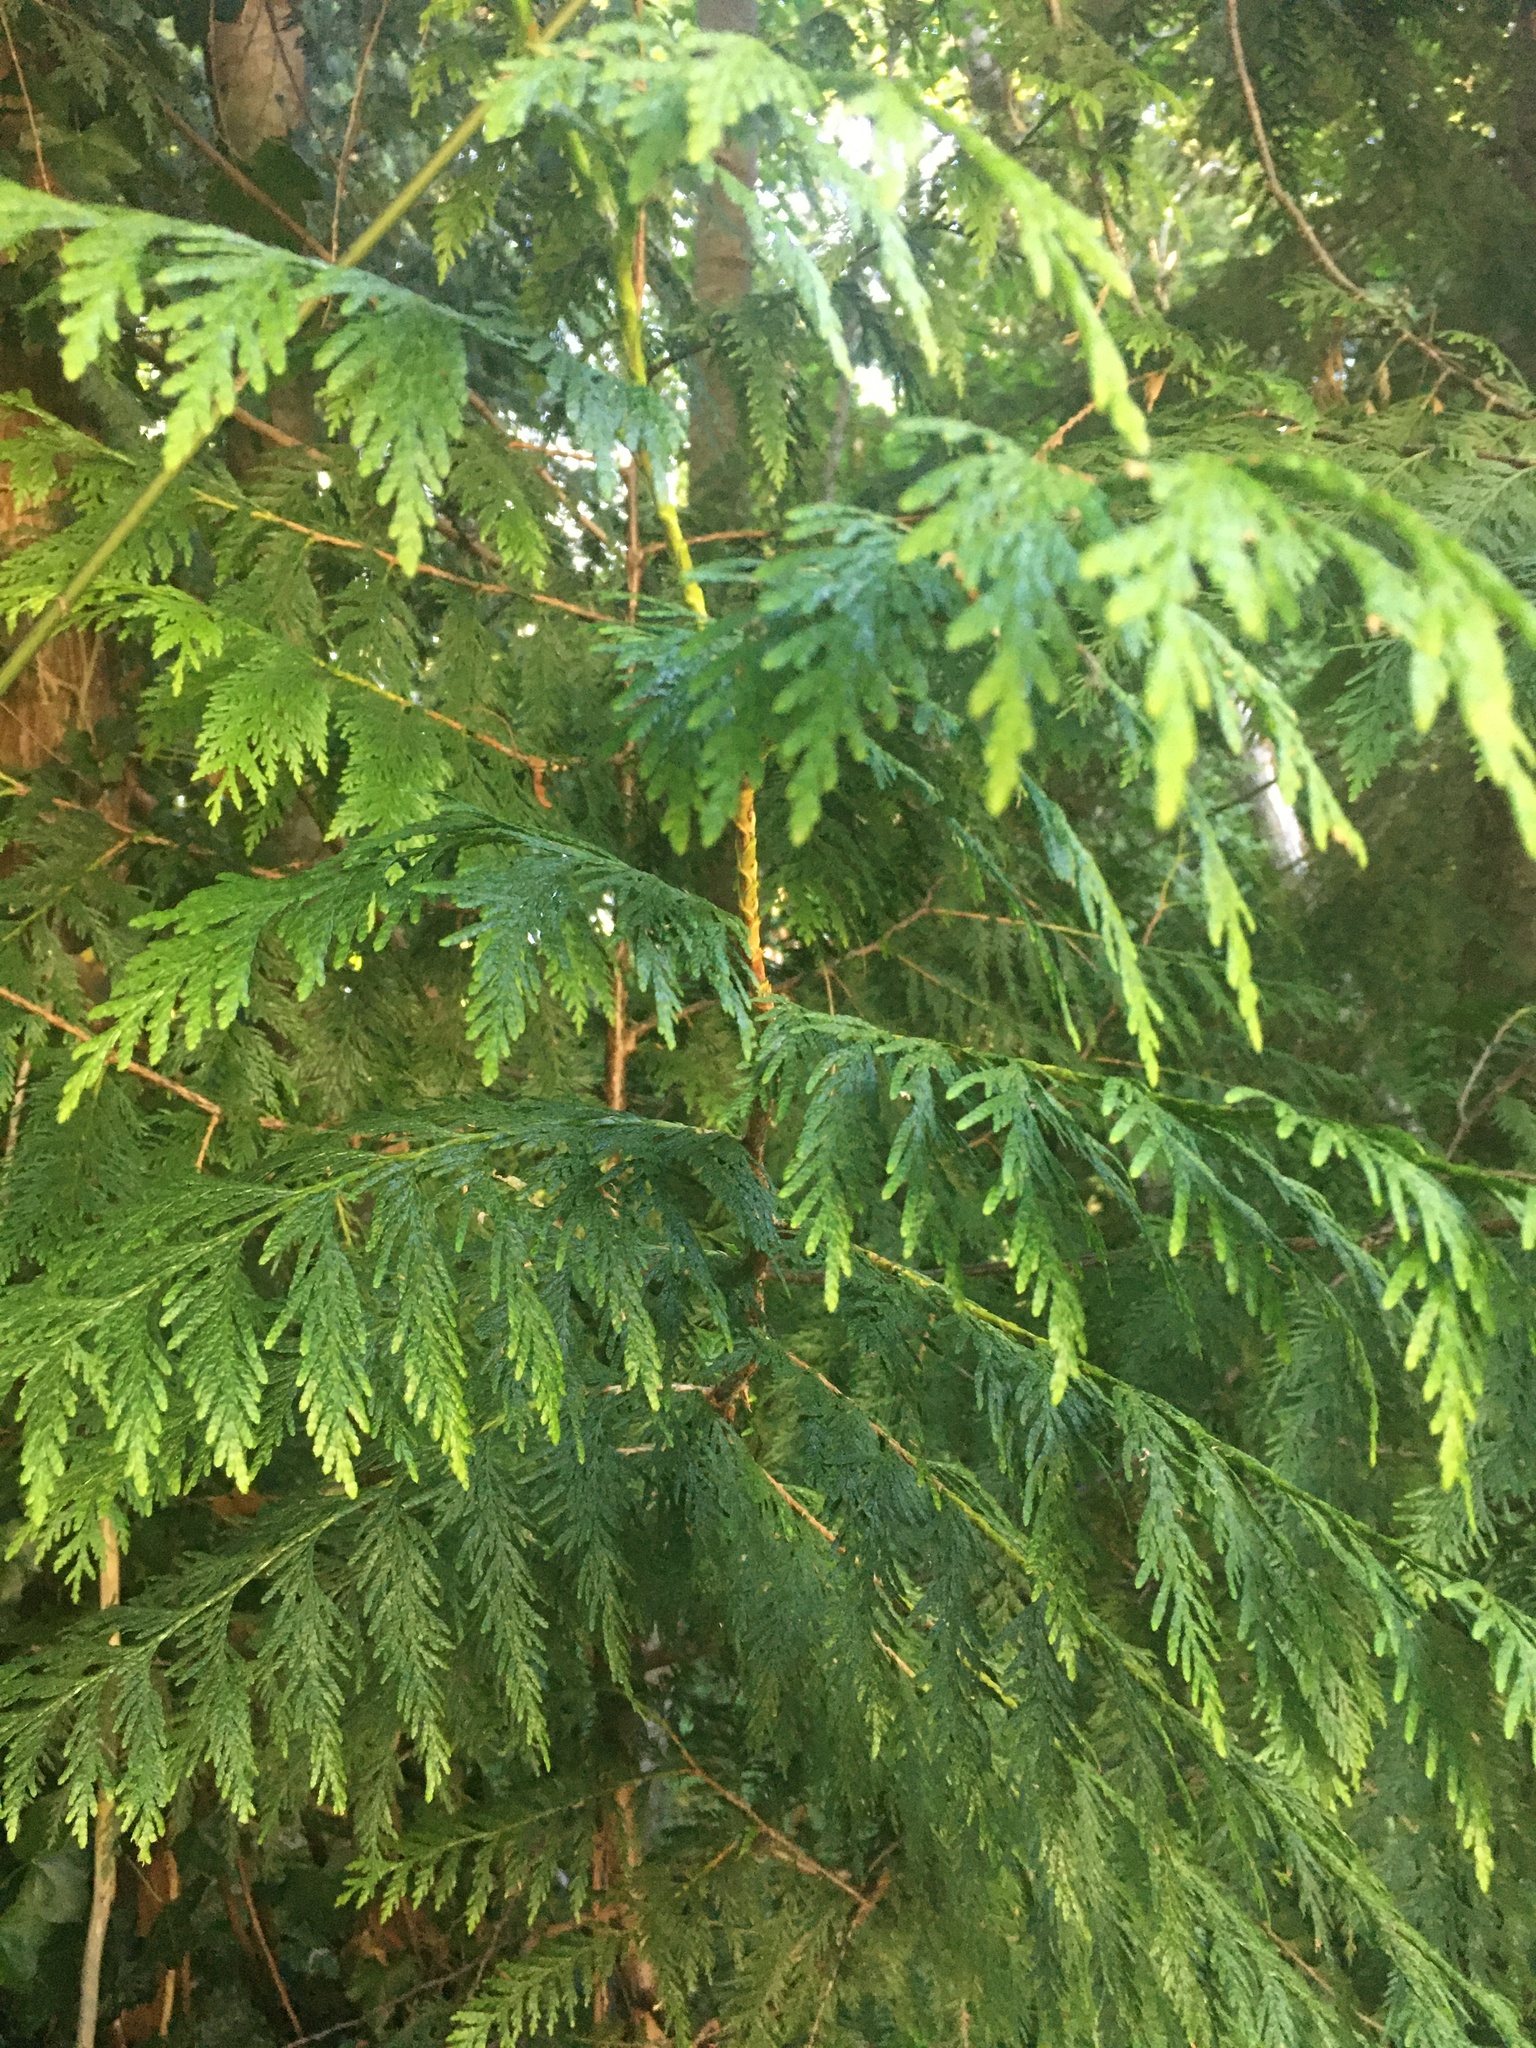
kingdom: Plantae
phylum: Tracheophyta
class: Pinopsida
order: Pinales
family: Cupressaceae
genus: Thuja
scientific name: Thuja plicata
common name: Western red-cedar
